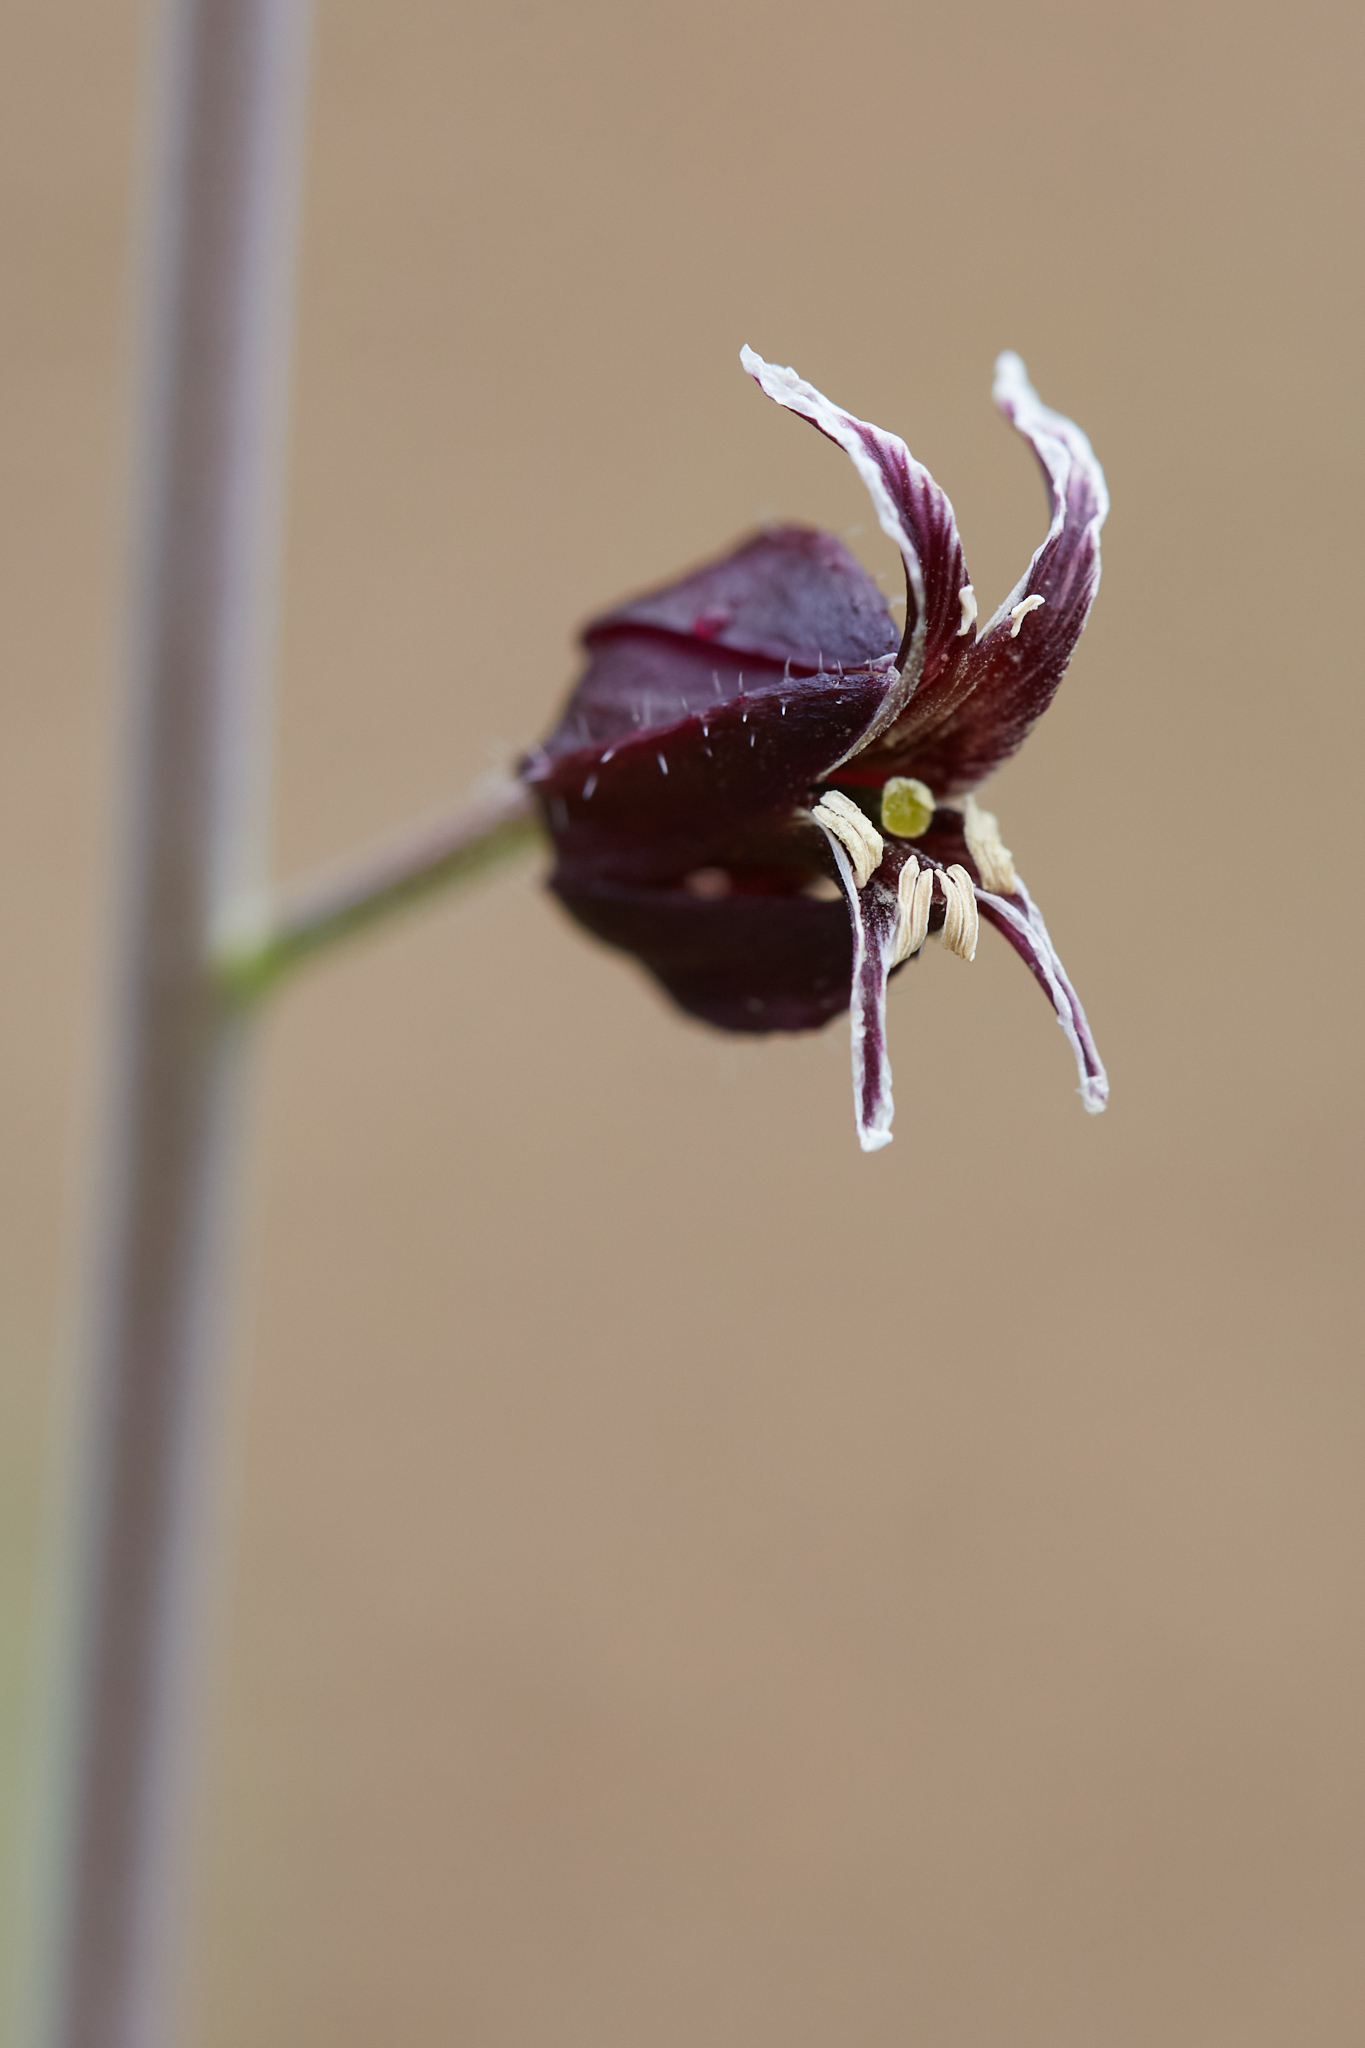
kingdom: Plantae
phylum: Tracheophyta
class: Magnoliopsida
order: Brassicales
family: Brassicaceae
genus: Streptanthus
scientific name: Streptanthus glandulosus
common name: Jewel-flower
